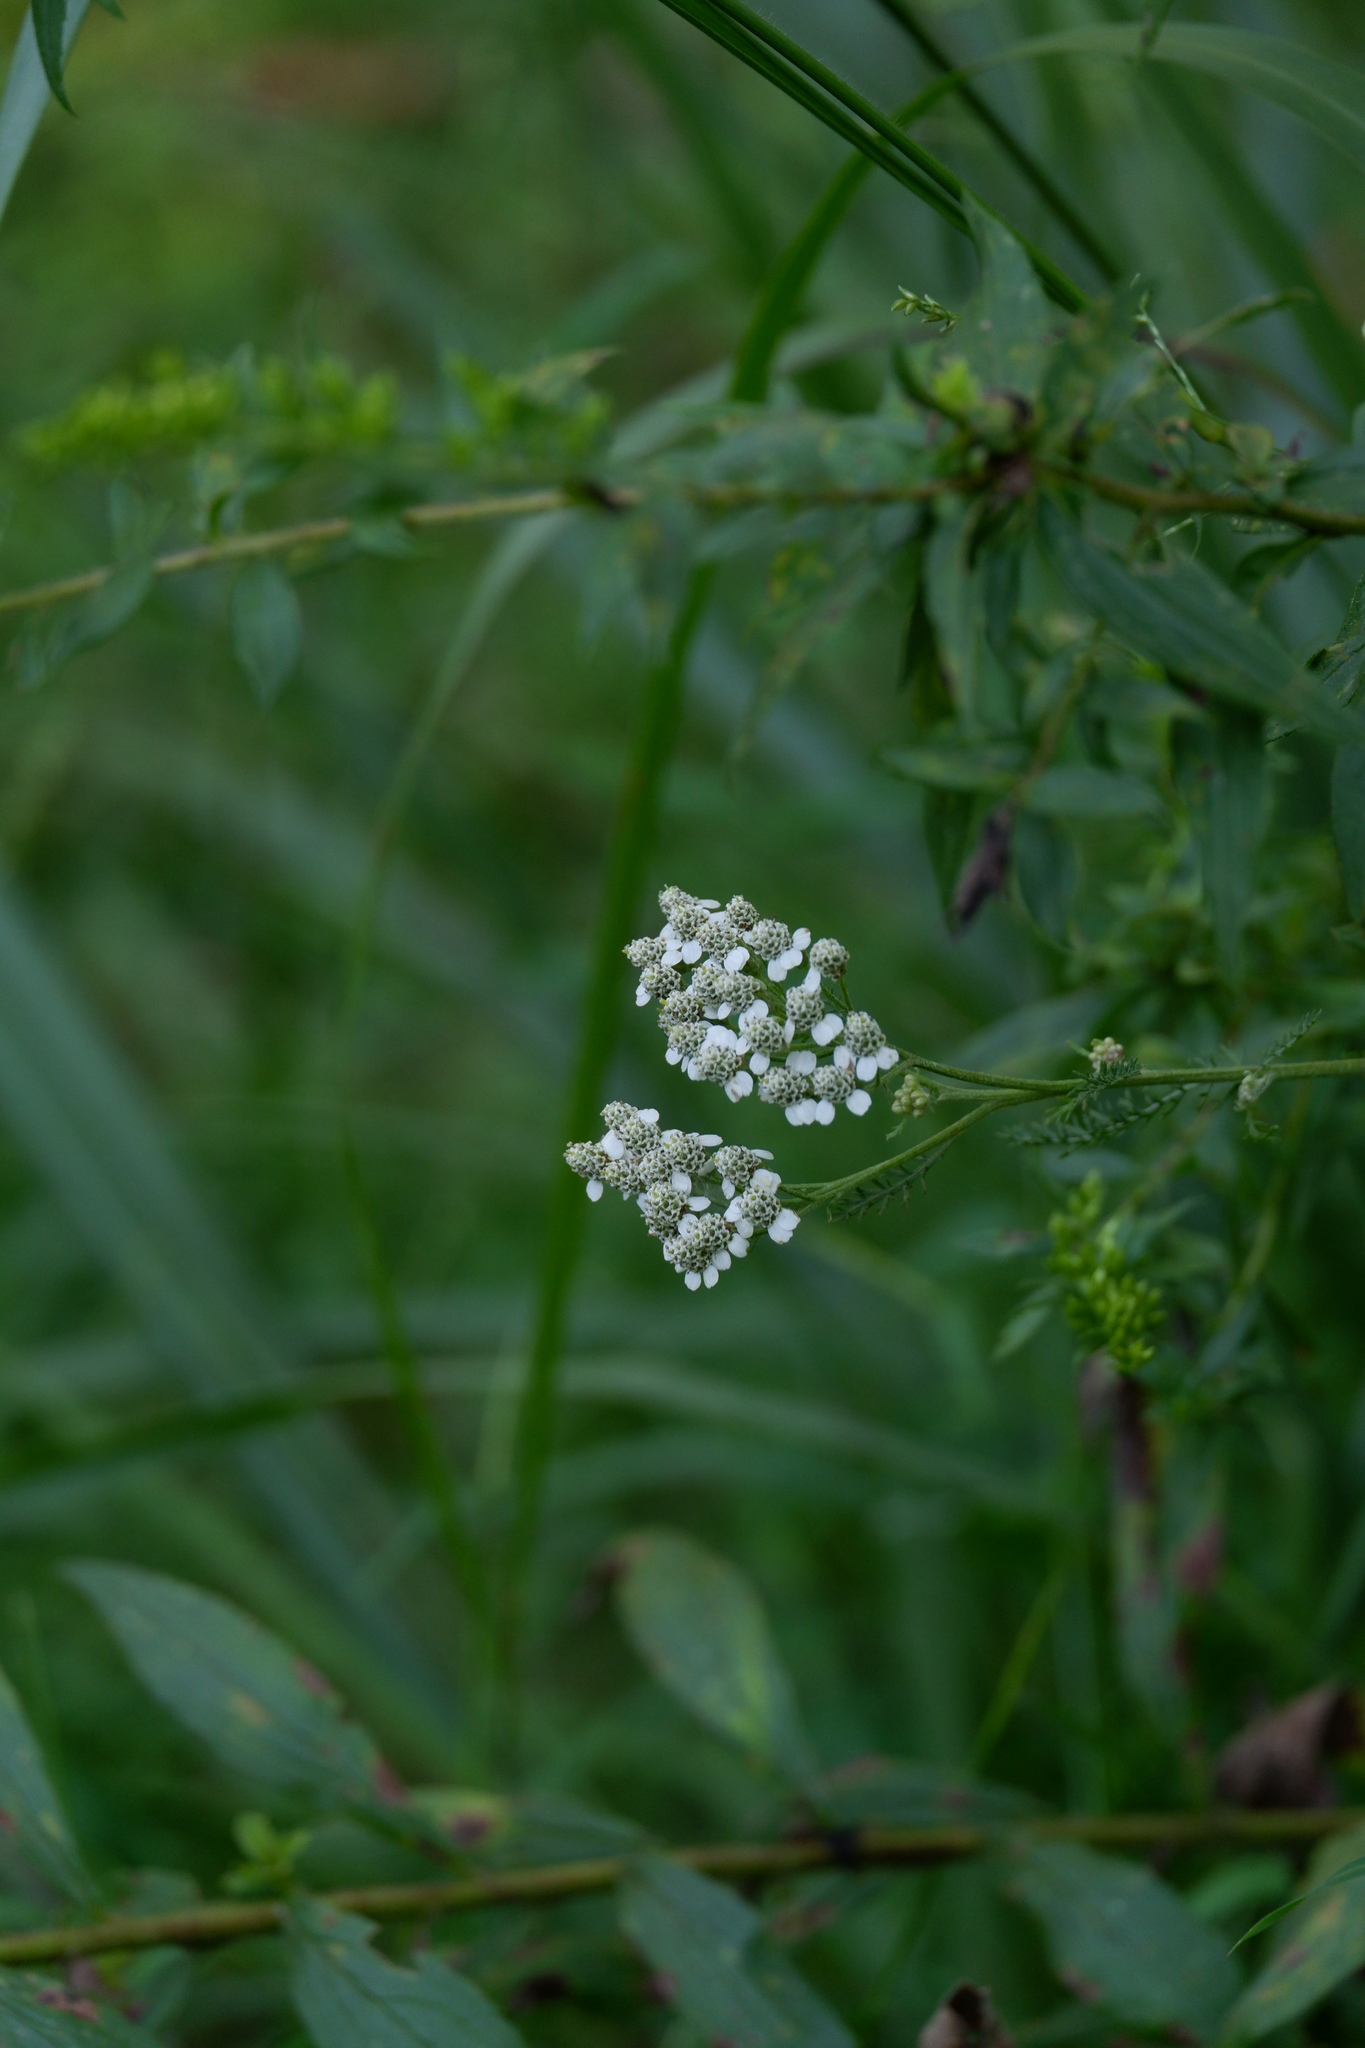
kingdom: Plantae
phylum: Tracheophyta
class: Magnoliopsida
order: Asterales
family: Asteraceae
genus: Achillea
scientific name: Achillea millefolium
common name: Yarrow
